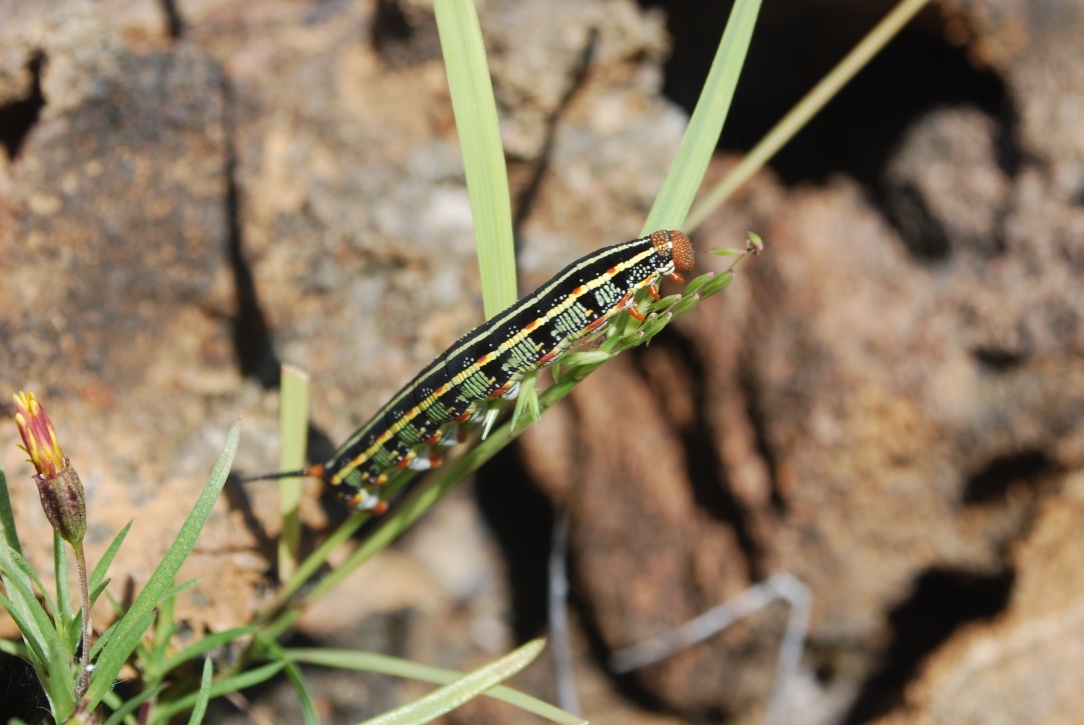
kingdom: Animalia
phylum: Arthropoda
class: Insecta
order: Lepidoptera
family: Sphingidae
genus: Hyles
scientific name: Hyles lineata
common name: White-lined sphinx
